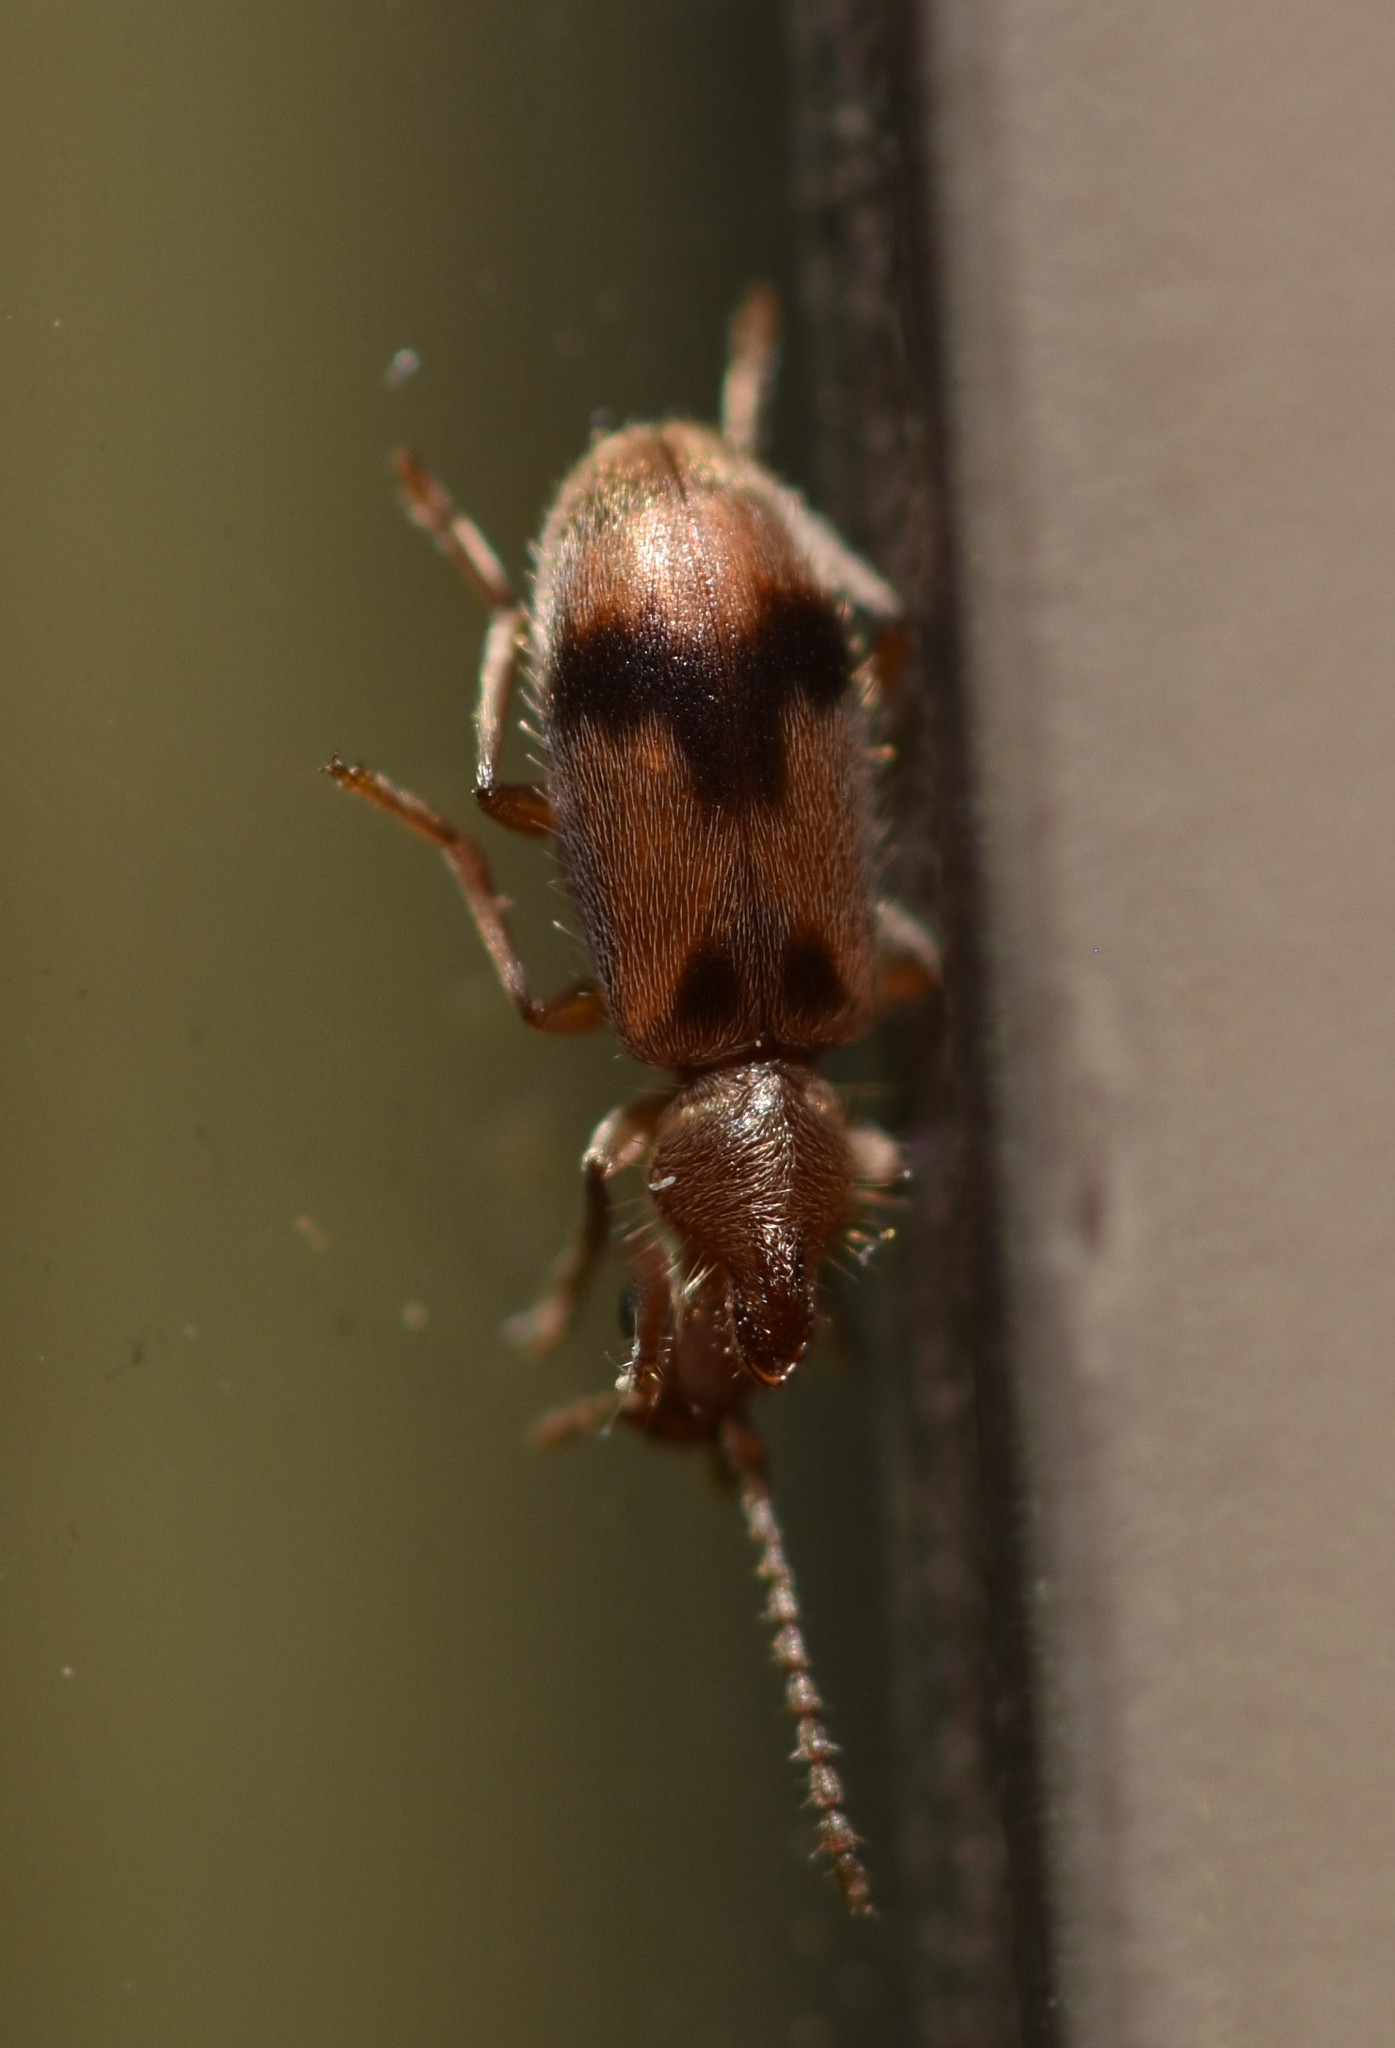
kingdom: Animalia
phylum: Arthropoda
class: Insecta
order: Coleoptera
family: Anthicidae
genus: Notoxus
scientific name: Notoxus monodon
